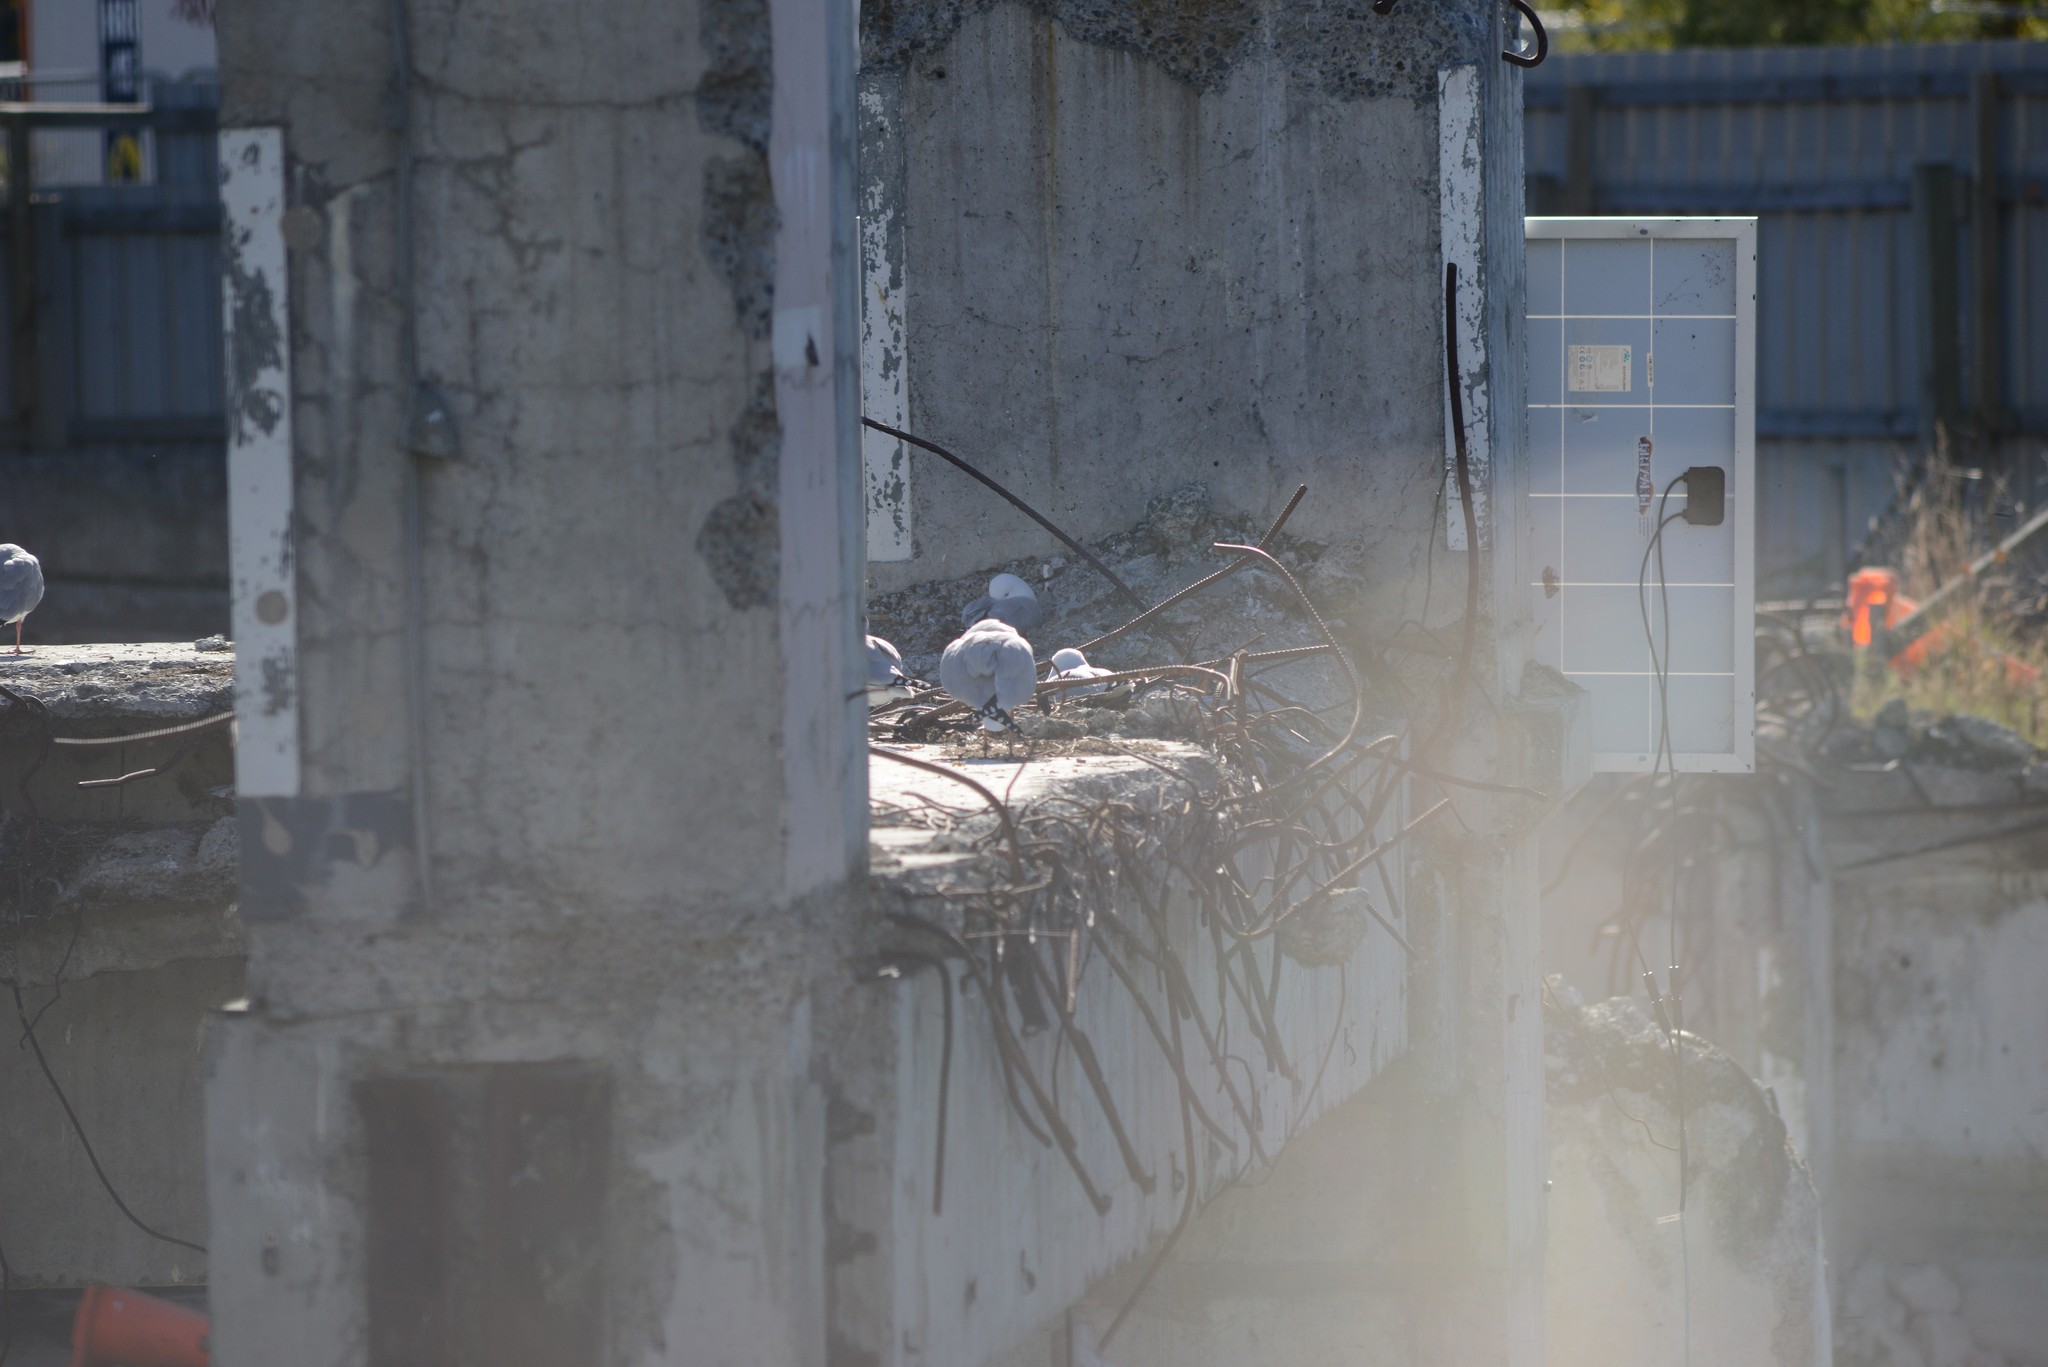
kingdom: Animalia
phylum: Chordata
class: Aves
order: Charadriiformes
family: Laridae
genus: Chroicocephalus
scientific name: Chroicocephalus novaehollandiae
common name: Silver gull
